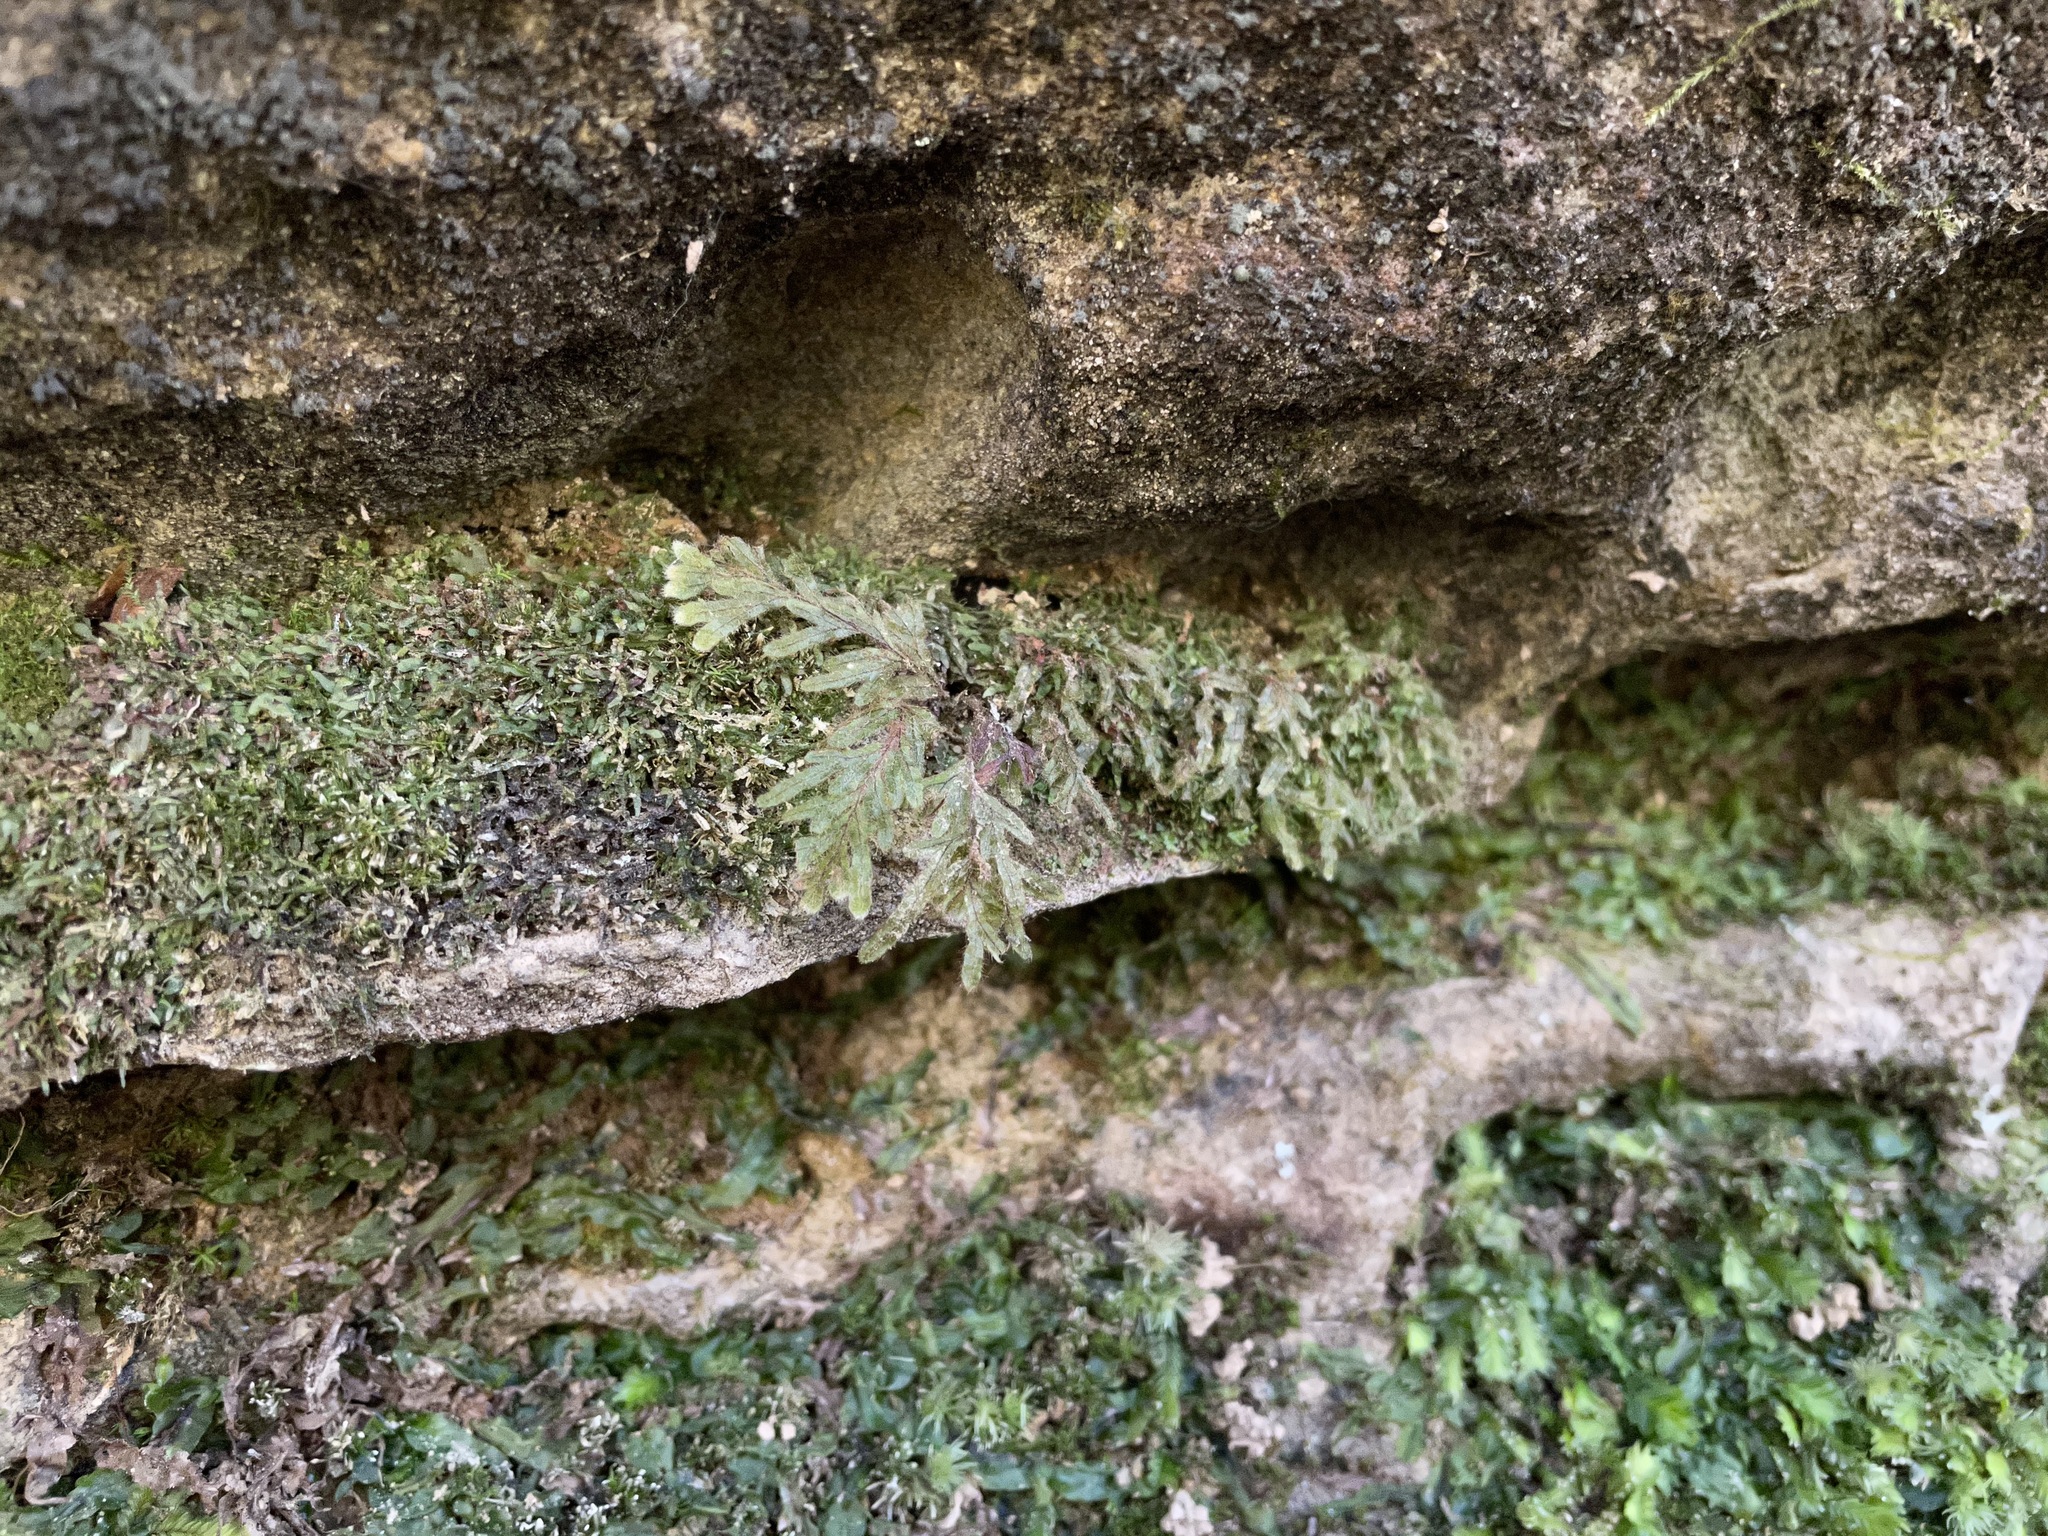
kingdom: Plantae
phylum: Tracheophyta
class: Polypodiopsida
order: Hymenophyllales
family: Hymenophyllaceae
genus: Hymenophyllum
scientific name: Hymenophyllum tayloriae
